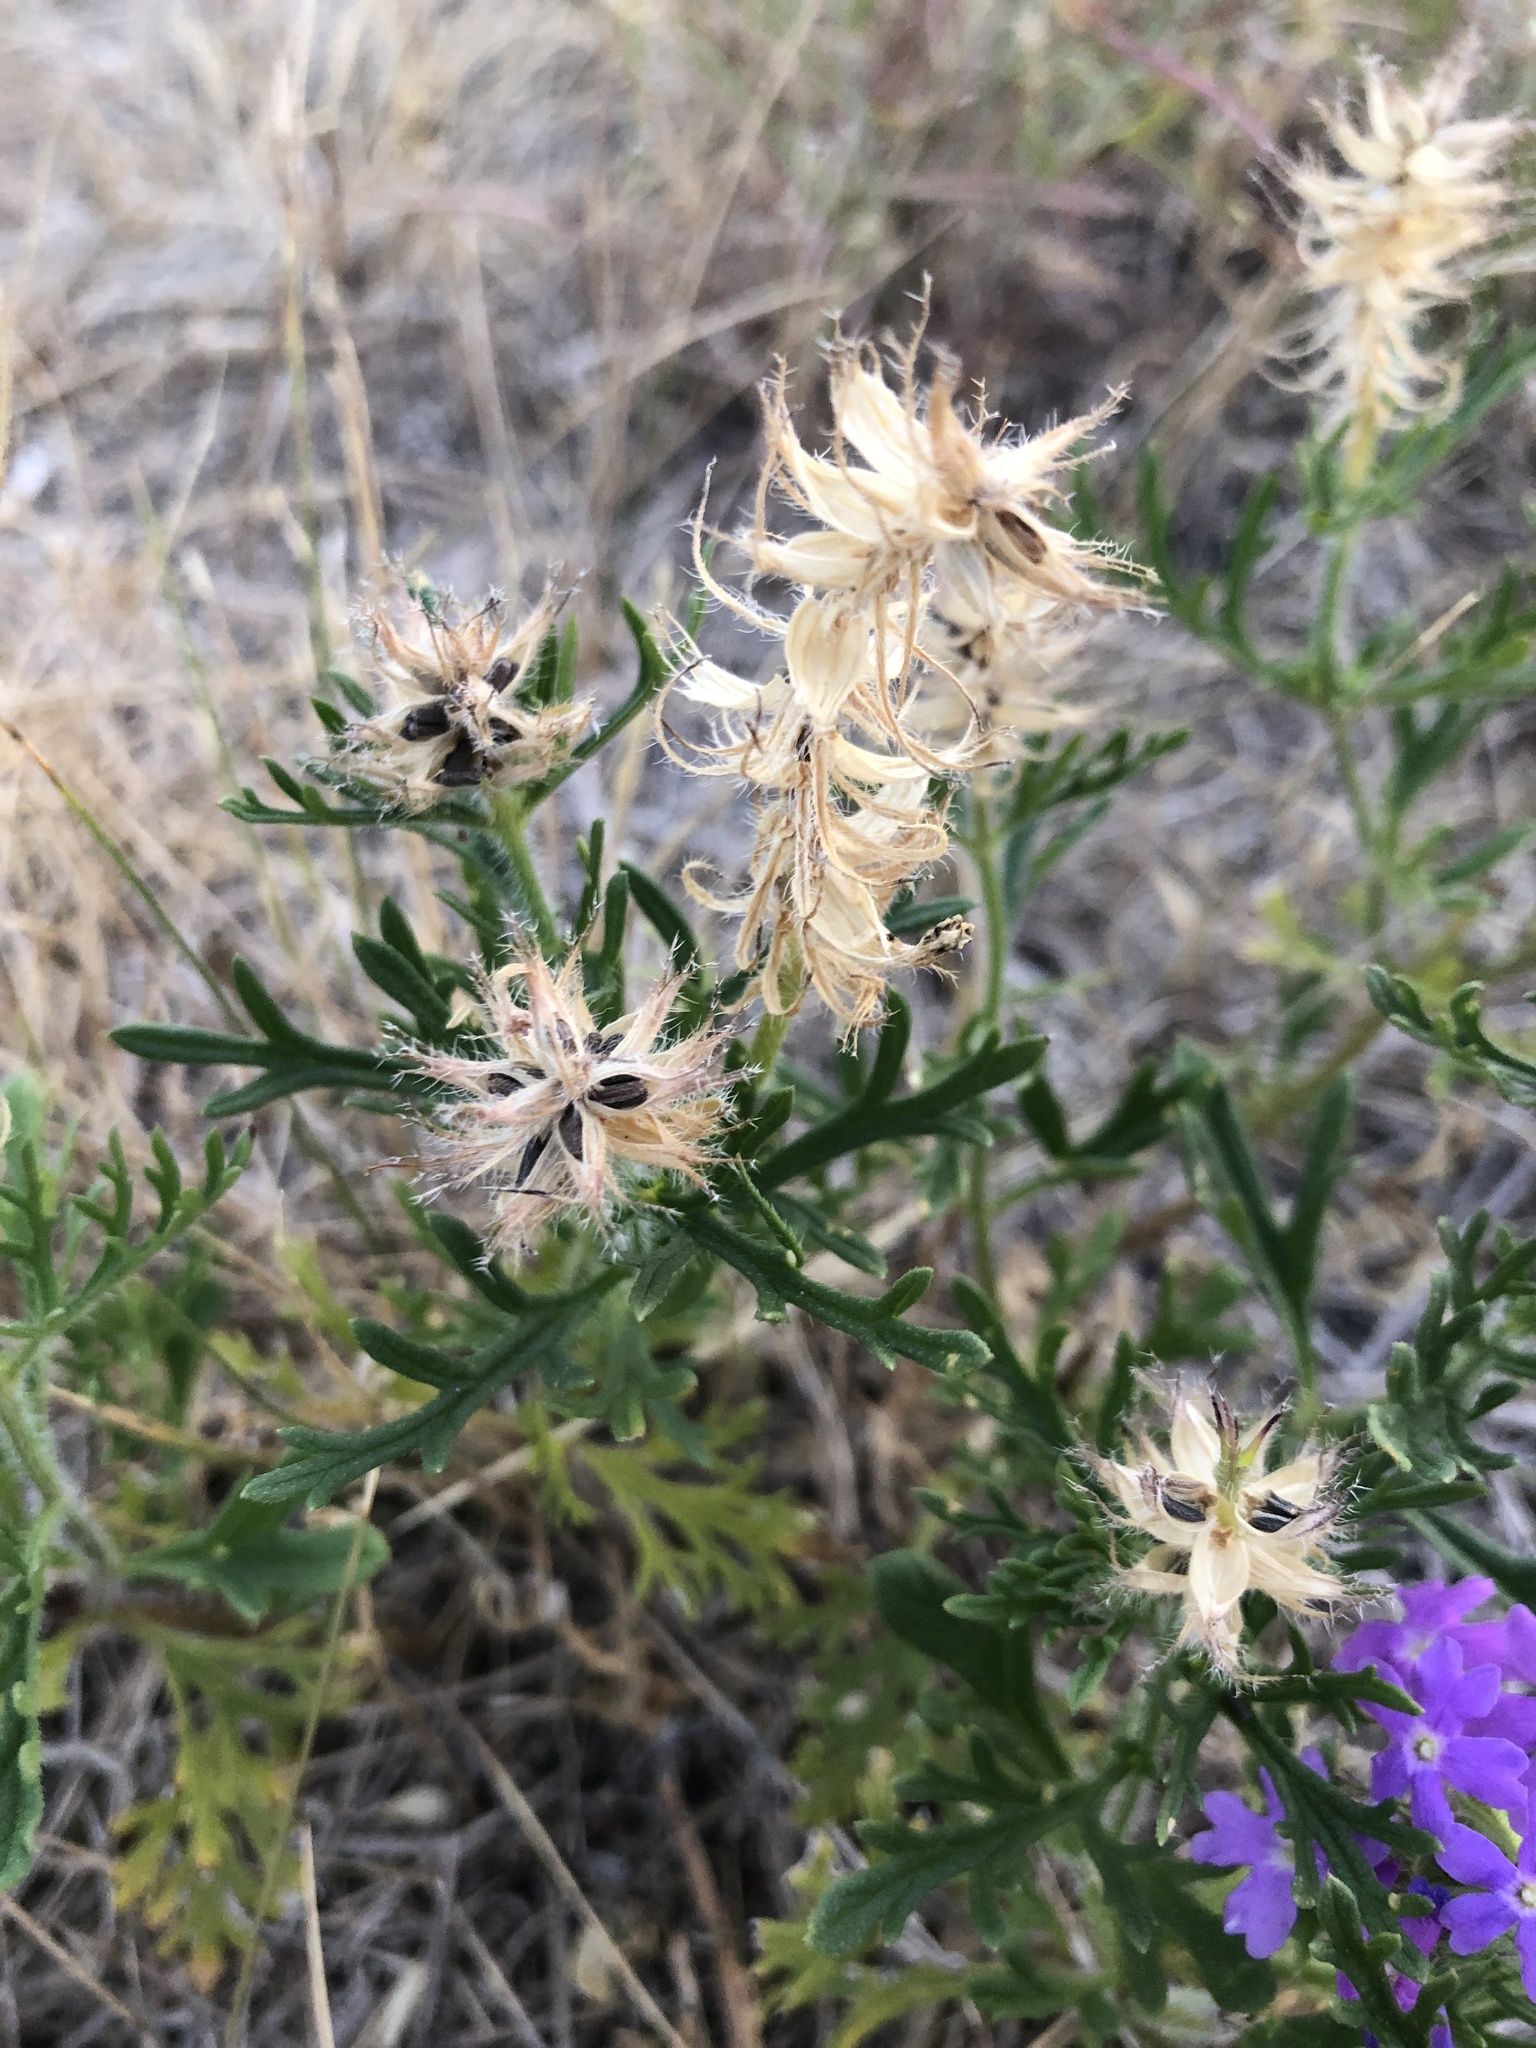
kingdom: Plantae
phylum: Tracheophyta
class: Magnoliopsida
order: Lamiales
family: Verbenaceae
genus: Verbena
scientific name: Verbena bipinnatifida
